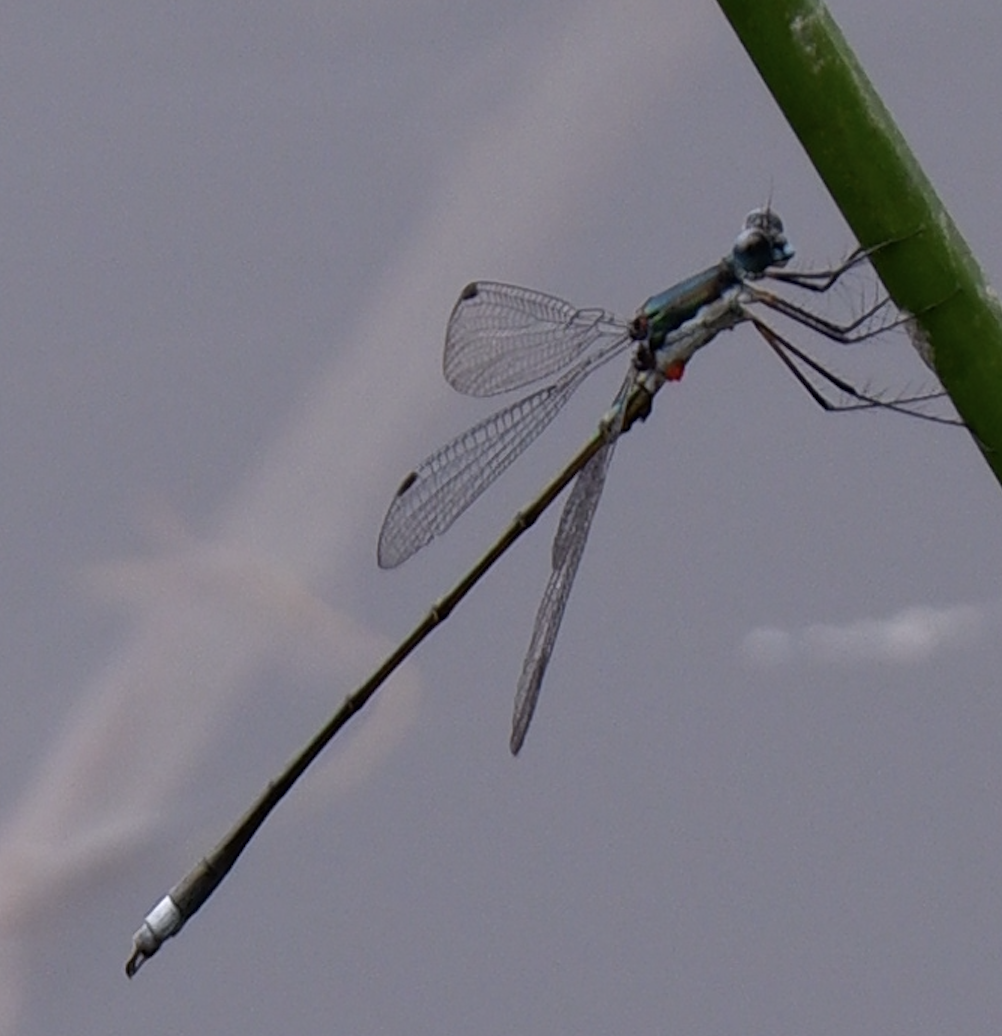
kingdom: Animalia
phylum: Arthropoda
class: Insecta
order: Odonata
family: Lestidae
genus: Lestes
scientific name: Lestes vigilax
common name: Swamp spreadwing
